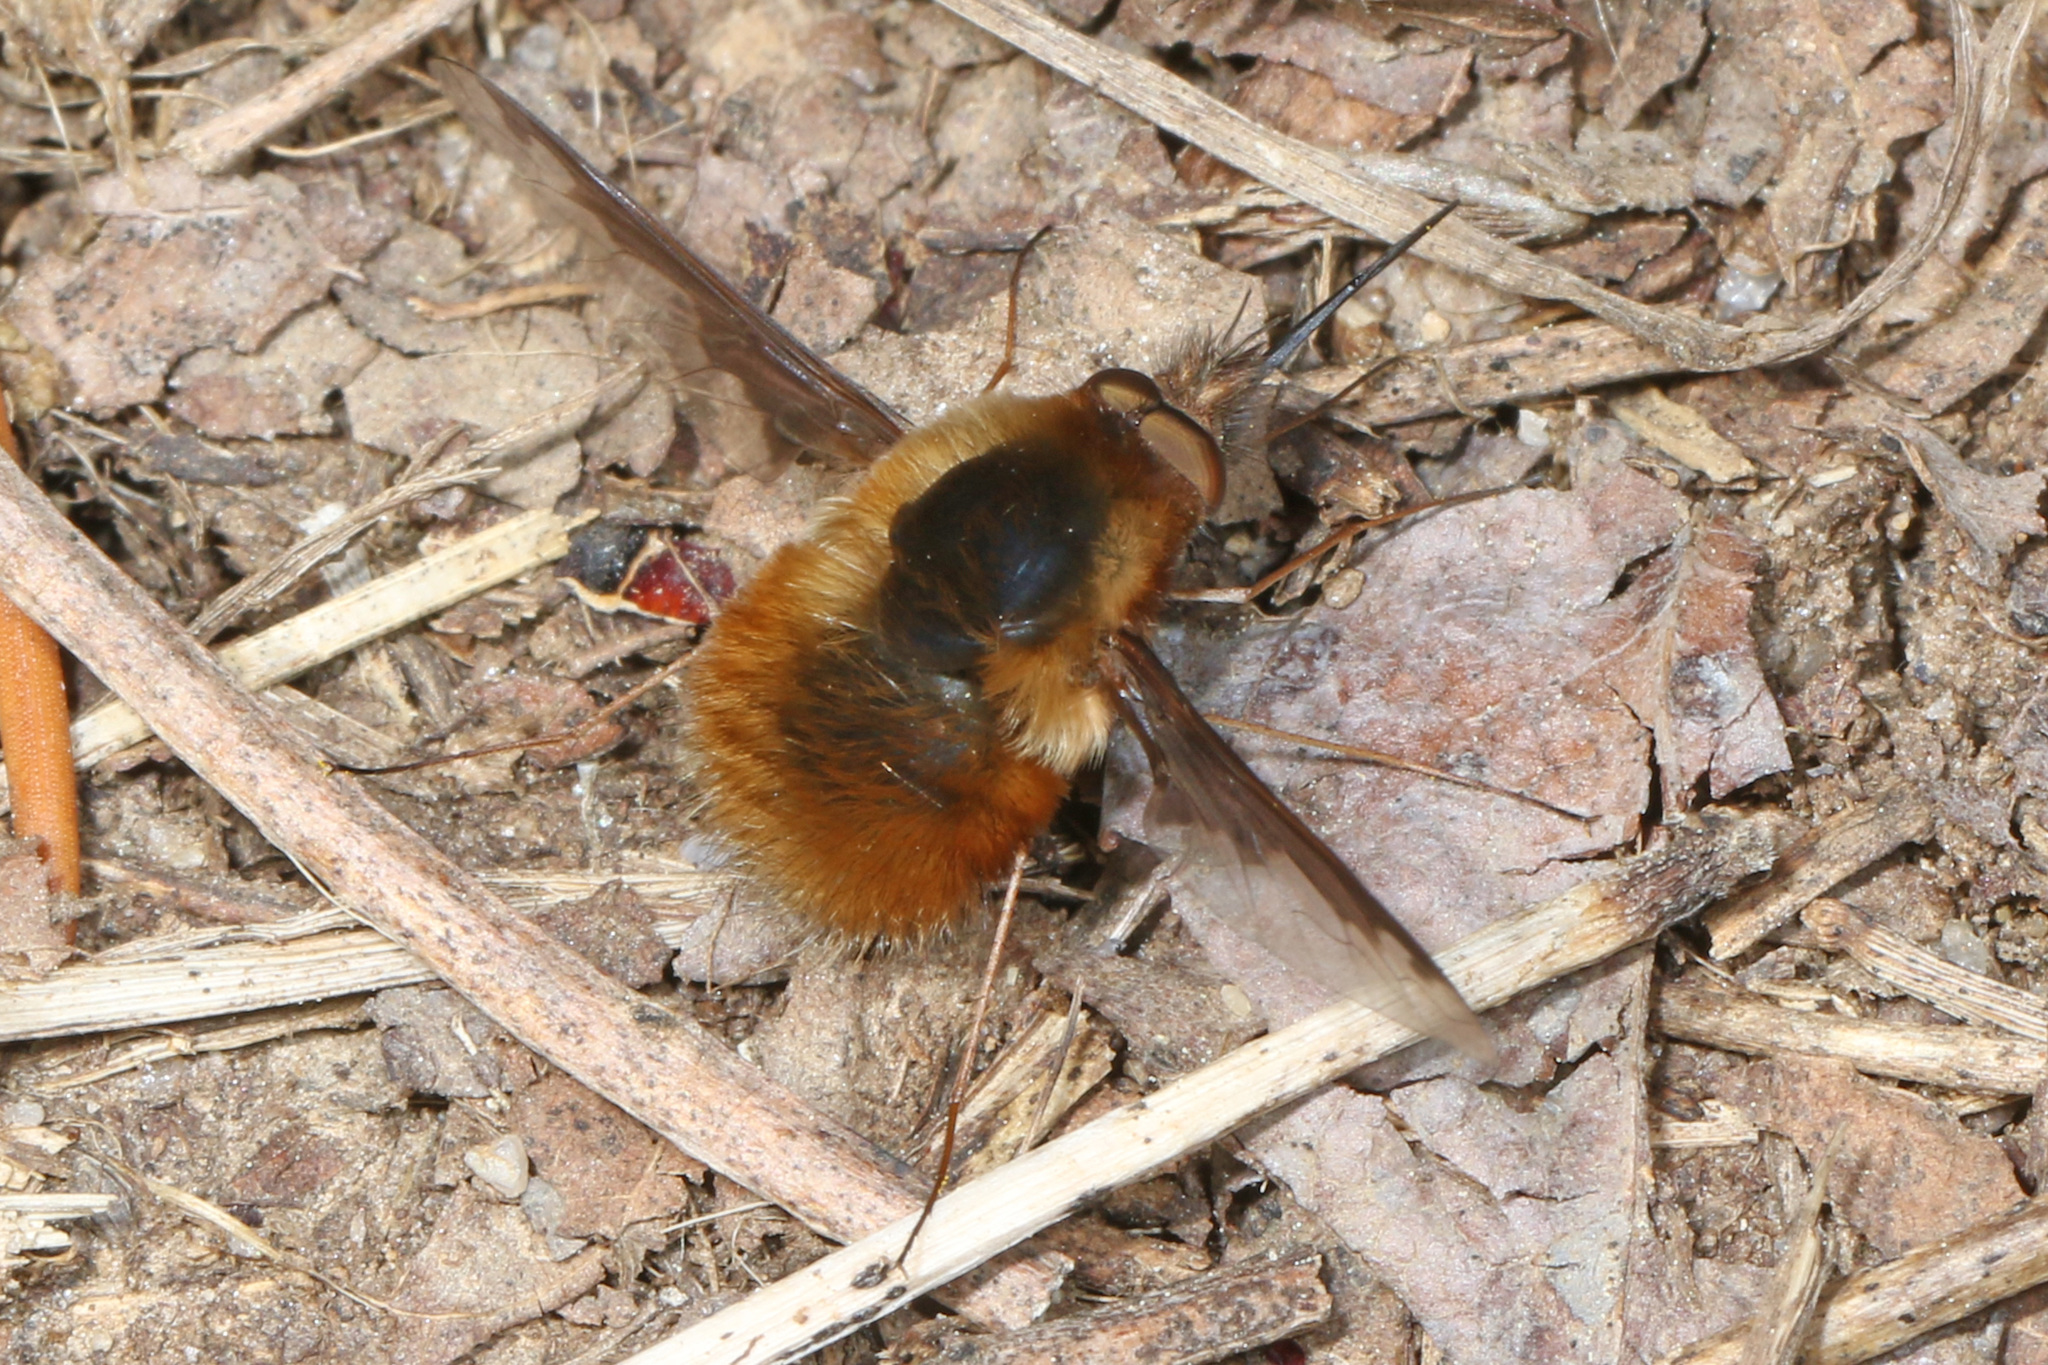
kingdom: Animalia
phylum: Arthropoda
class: Insecta
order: Diptera
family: Bombyliidae
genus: Bombylius
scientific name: Bombylius major
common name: Bee fly
